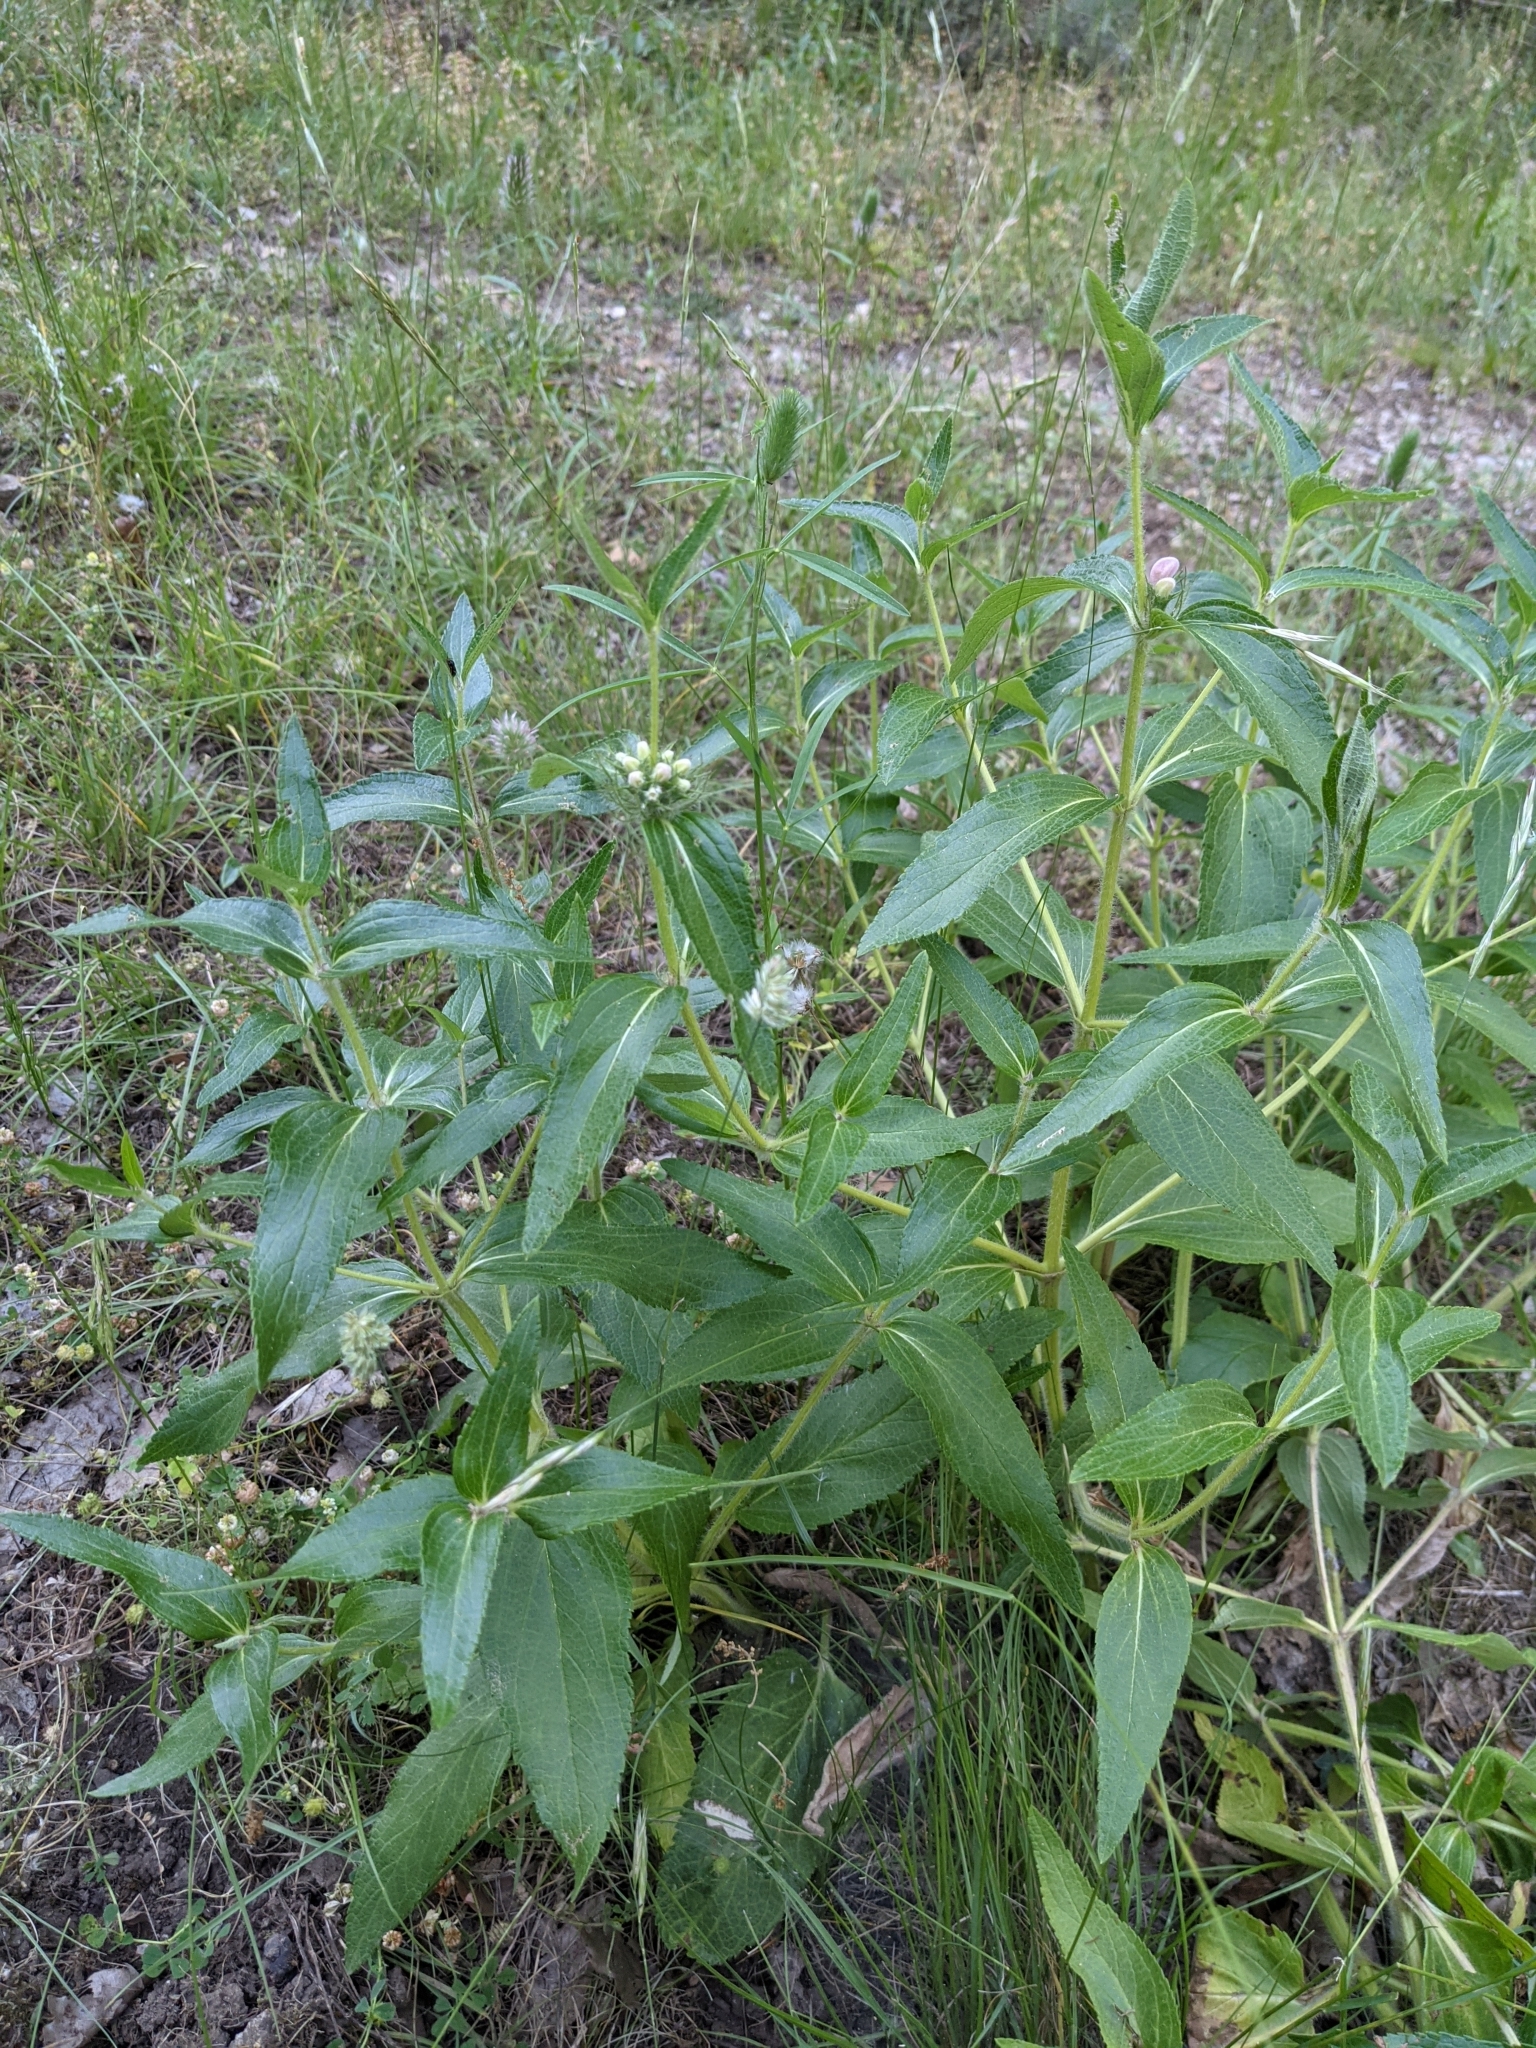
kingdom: Plantae
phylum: Tracheophyta
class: Magnoliopsida
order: Lamiales
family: Lamiaceae
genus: Phlomis
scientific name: Phlomis herba-venti
